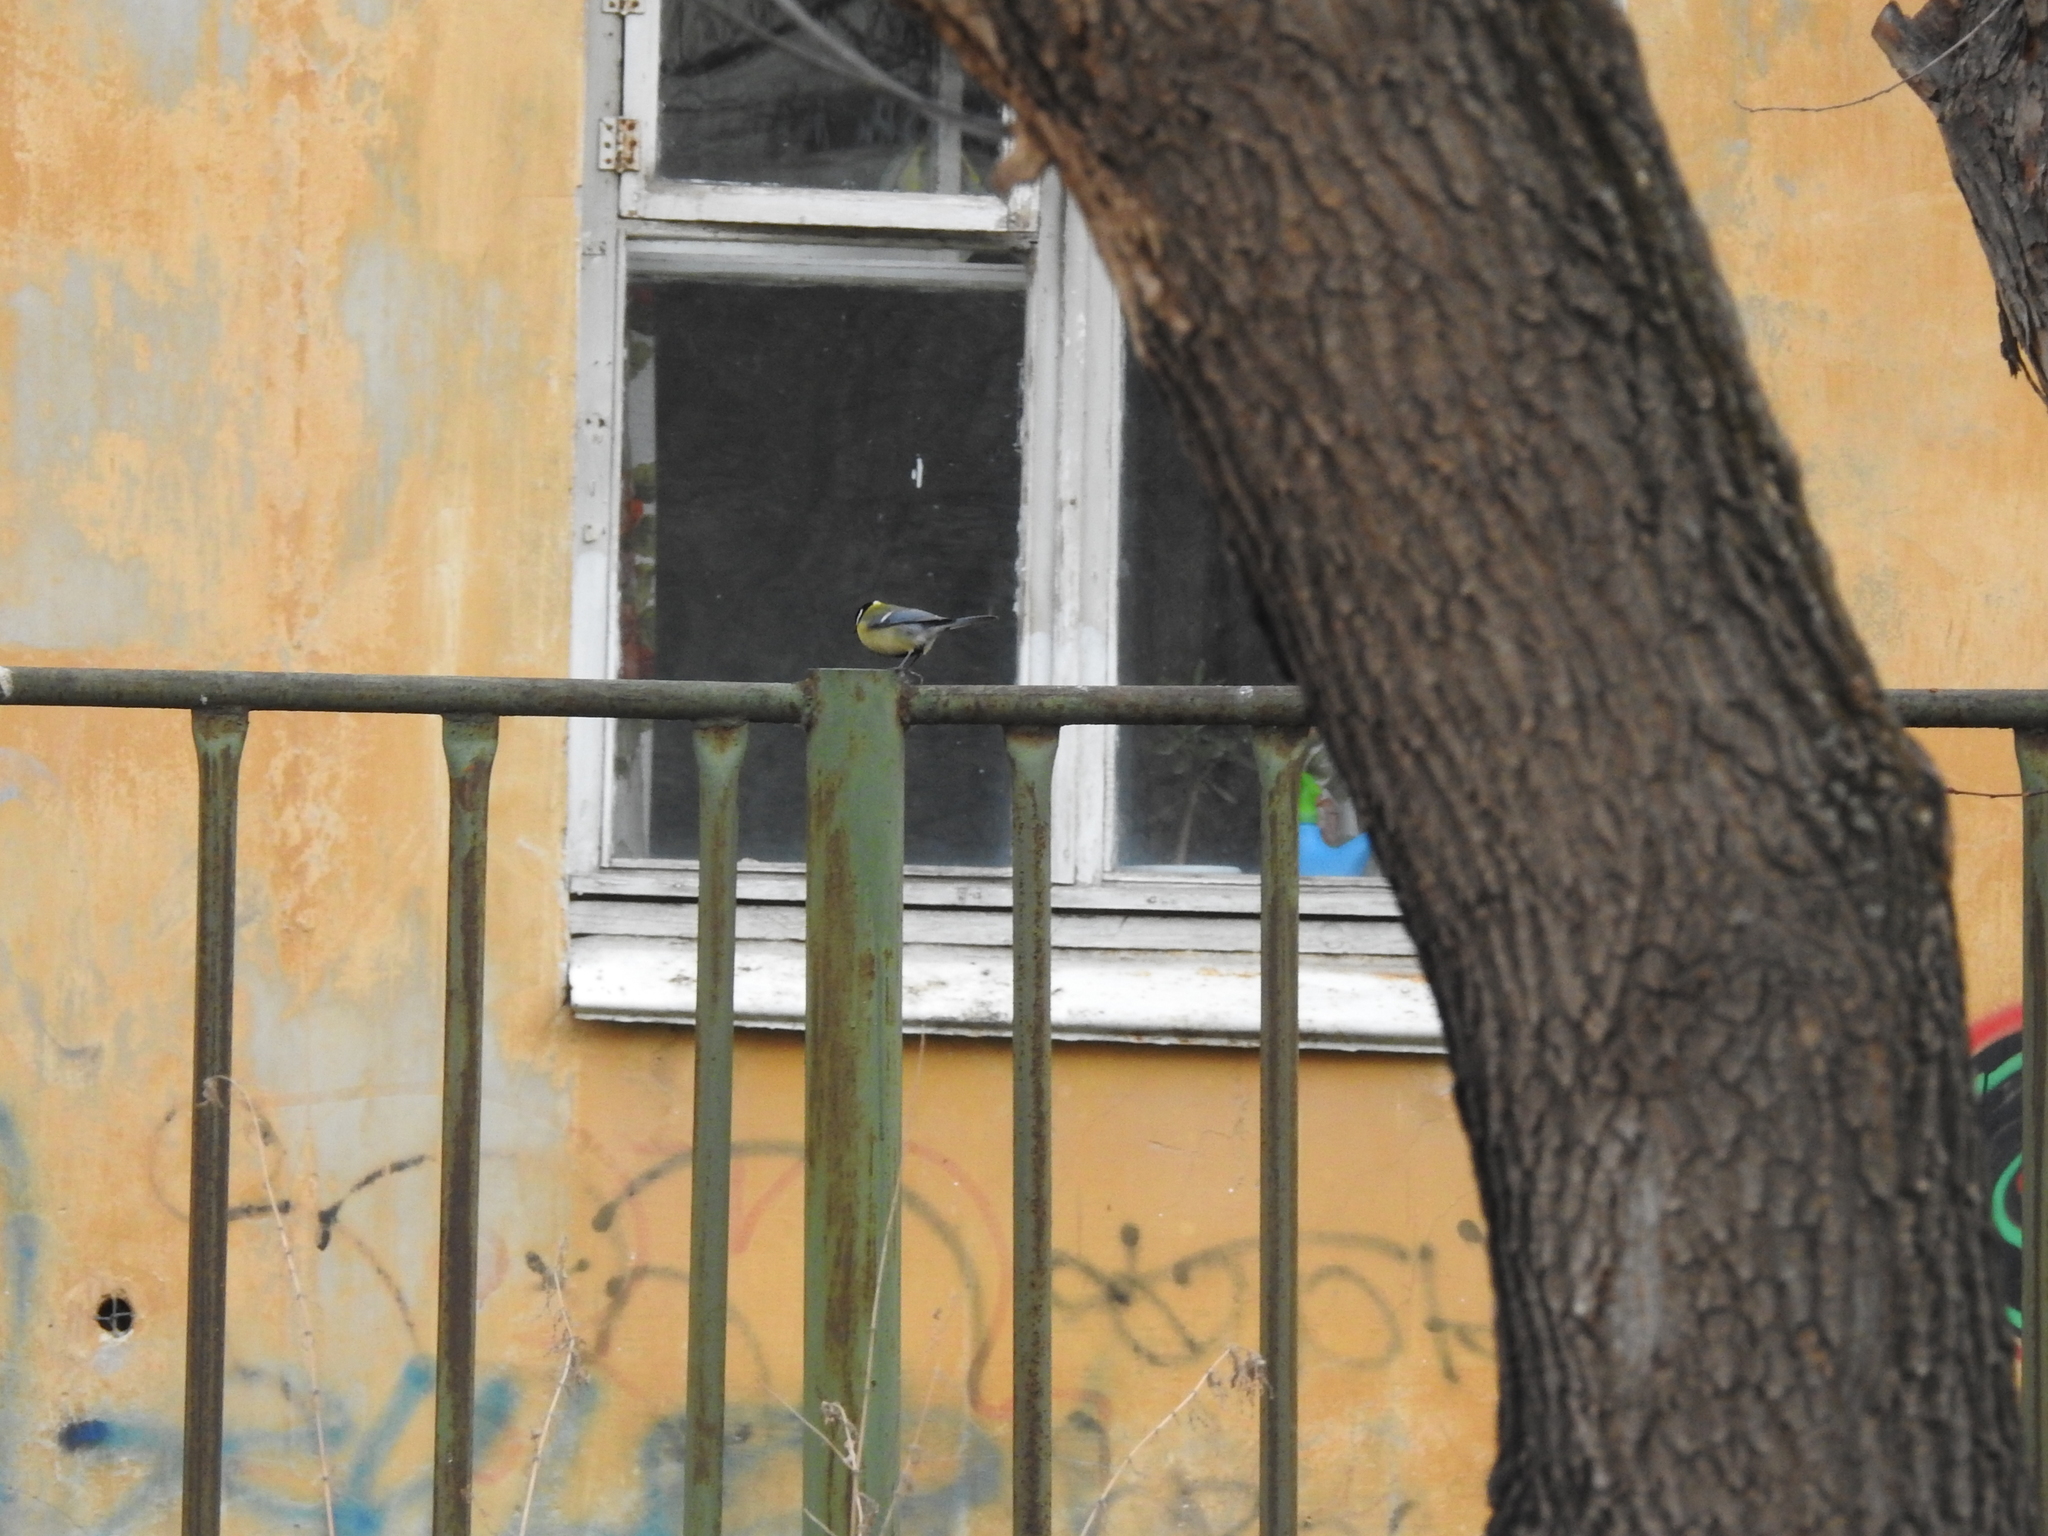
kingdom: Animalia
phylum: Chordata
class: Aves
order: Passeriformes
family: Paridae
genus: Parus
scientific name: Parus major
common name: Great tit
